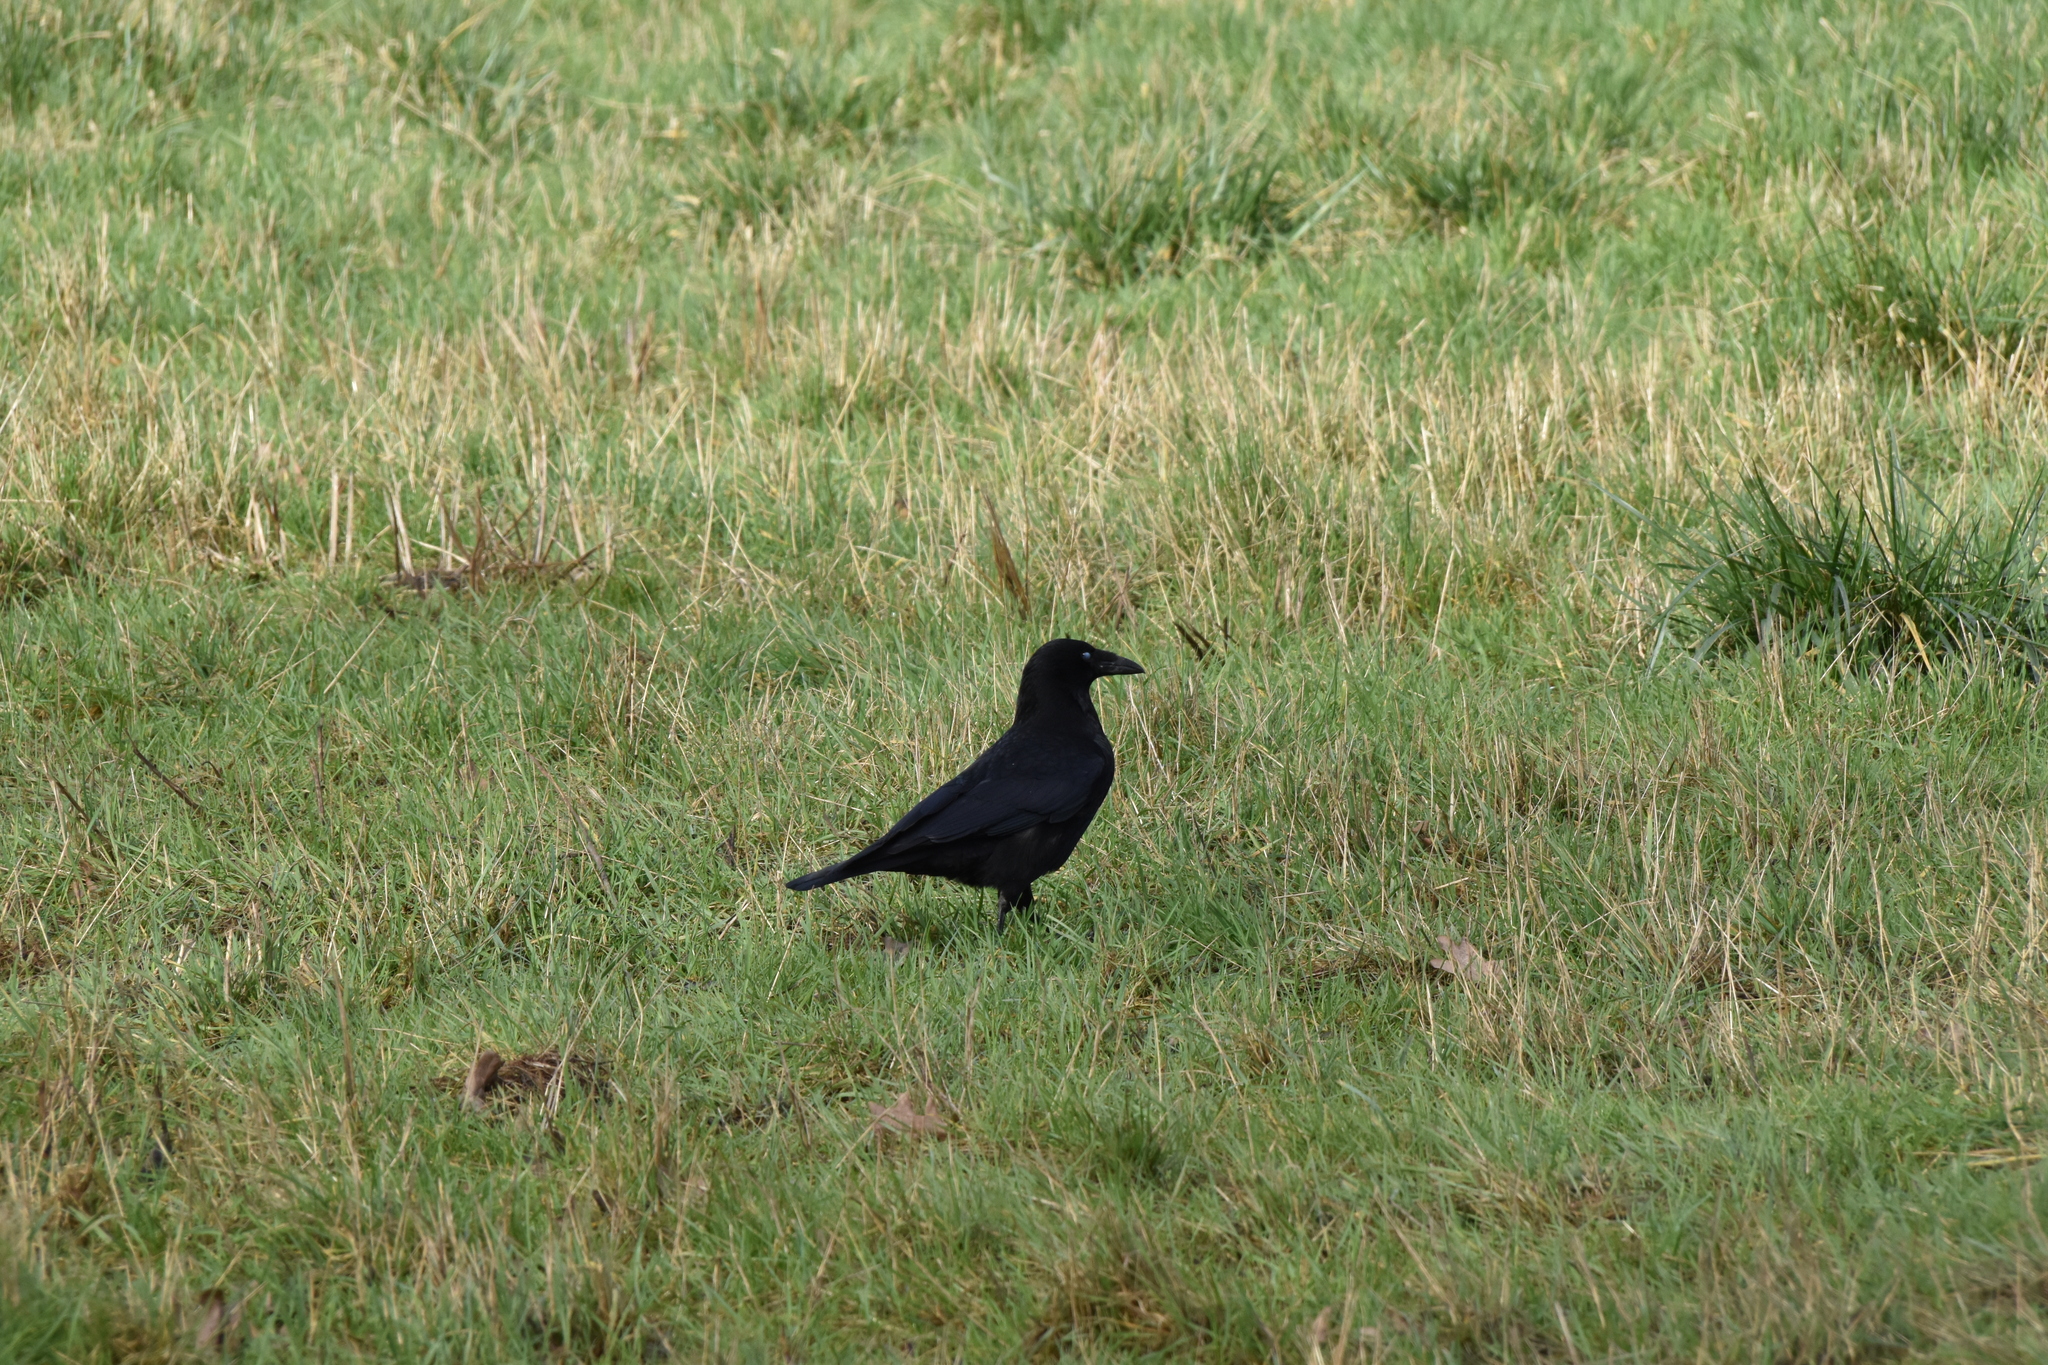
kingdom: Animalia
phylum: Chordata
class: Aves
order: Passeriformes
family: Corvidae
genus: Corvus
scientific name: Corvus corone
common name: Carrion crow
